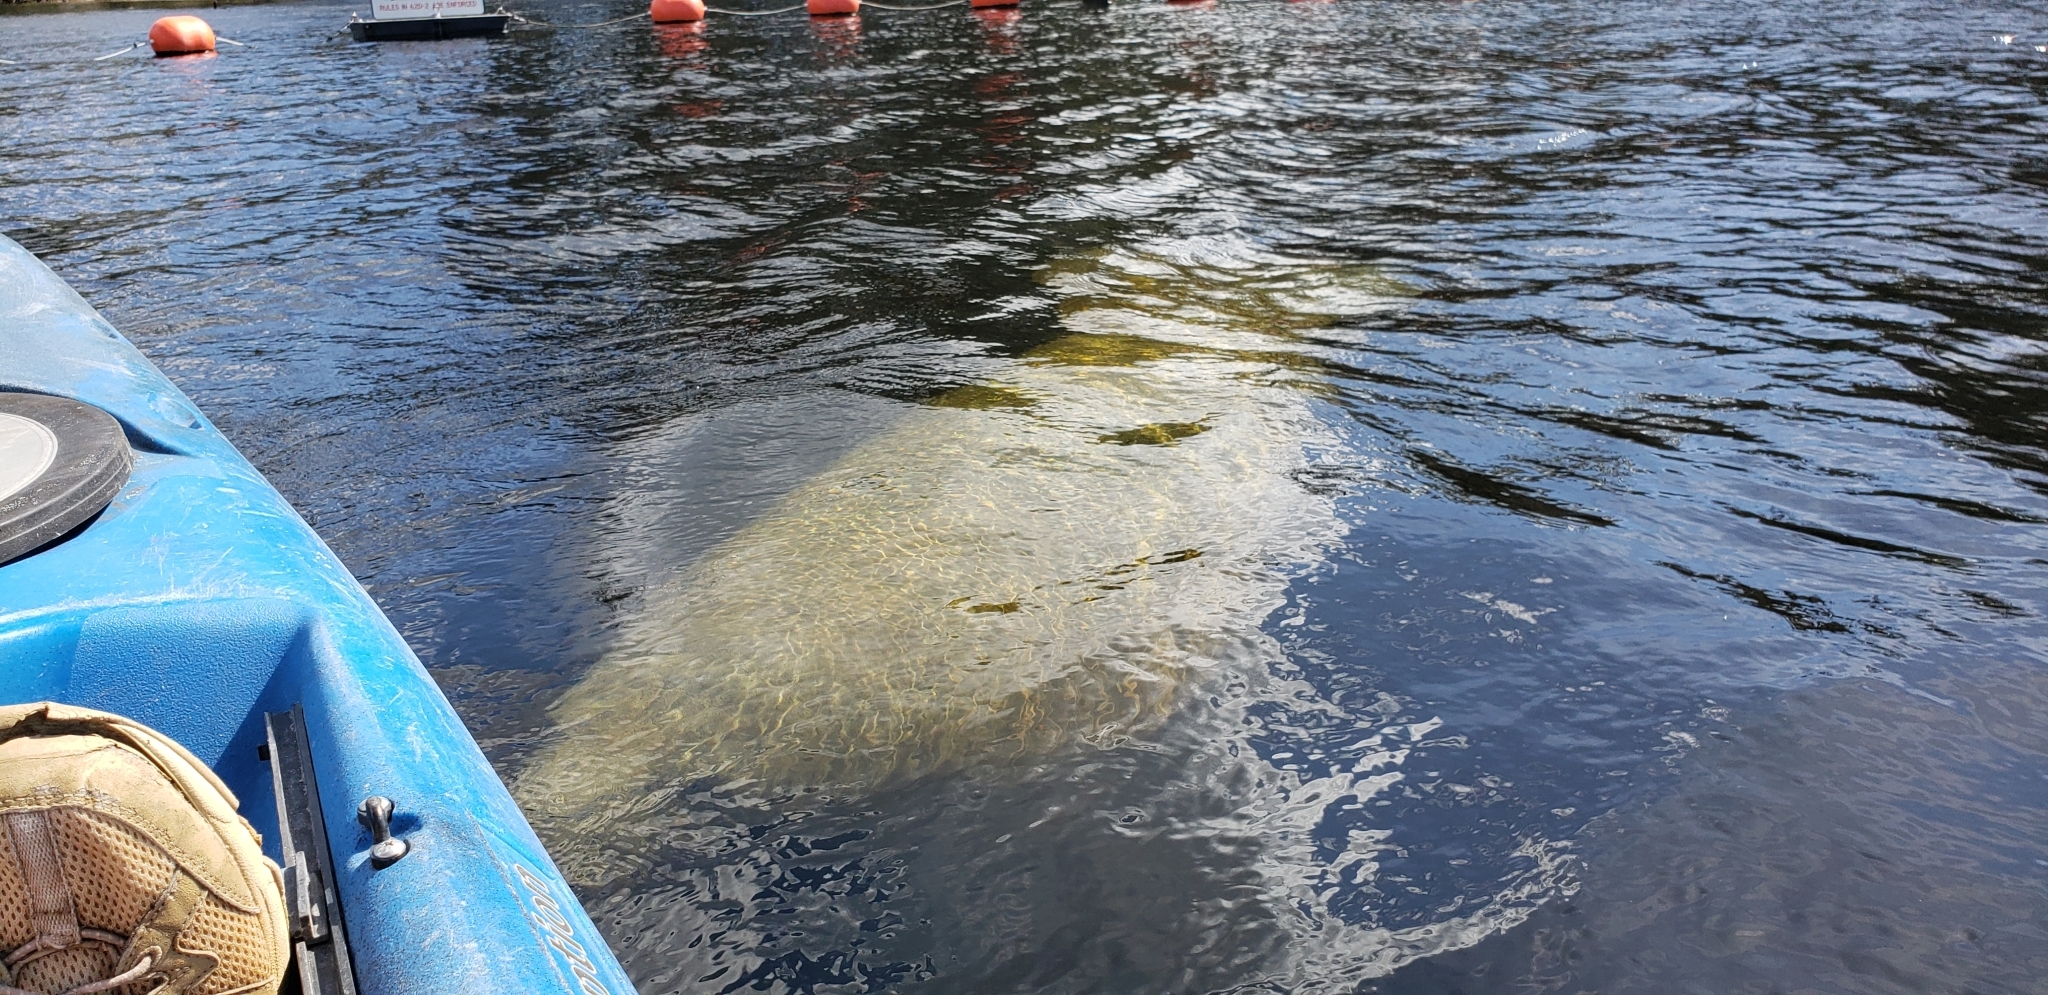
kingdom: Animalia
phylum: Chordata
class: Mammalia
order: Sirenia
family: Trichechidae
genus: Trichechus
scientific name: Trichechus manatus
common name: West indian manatee
